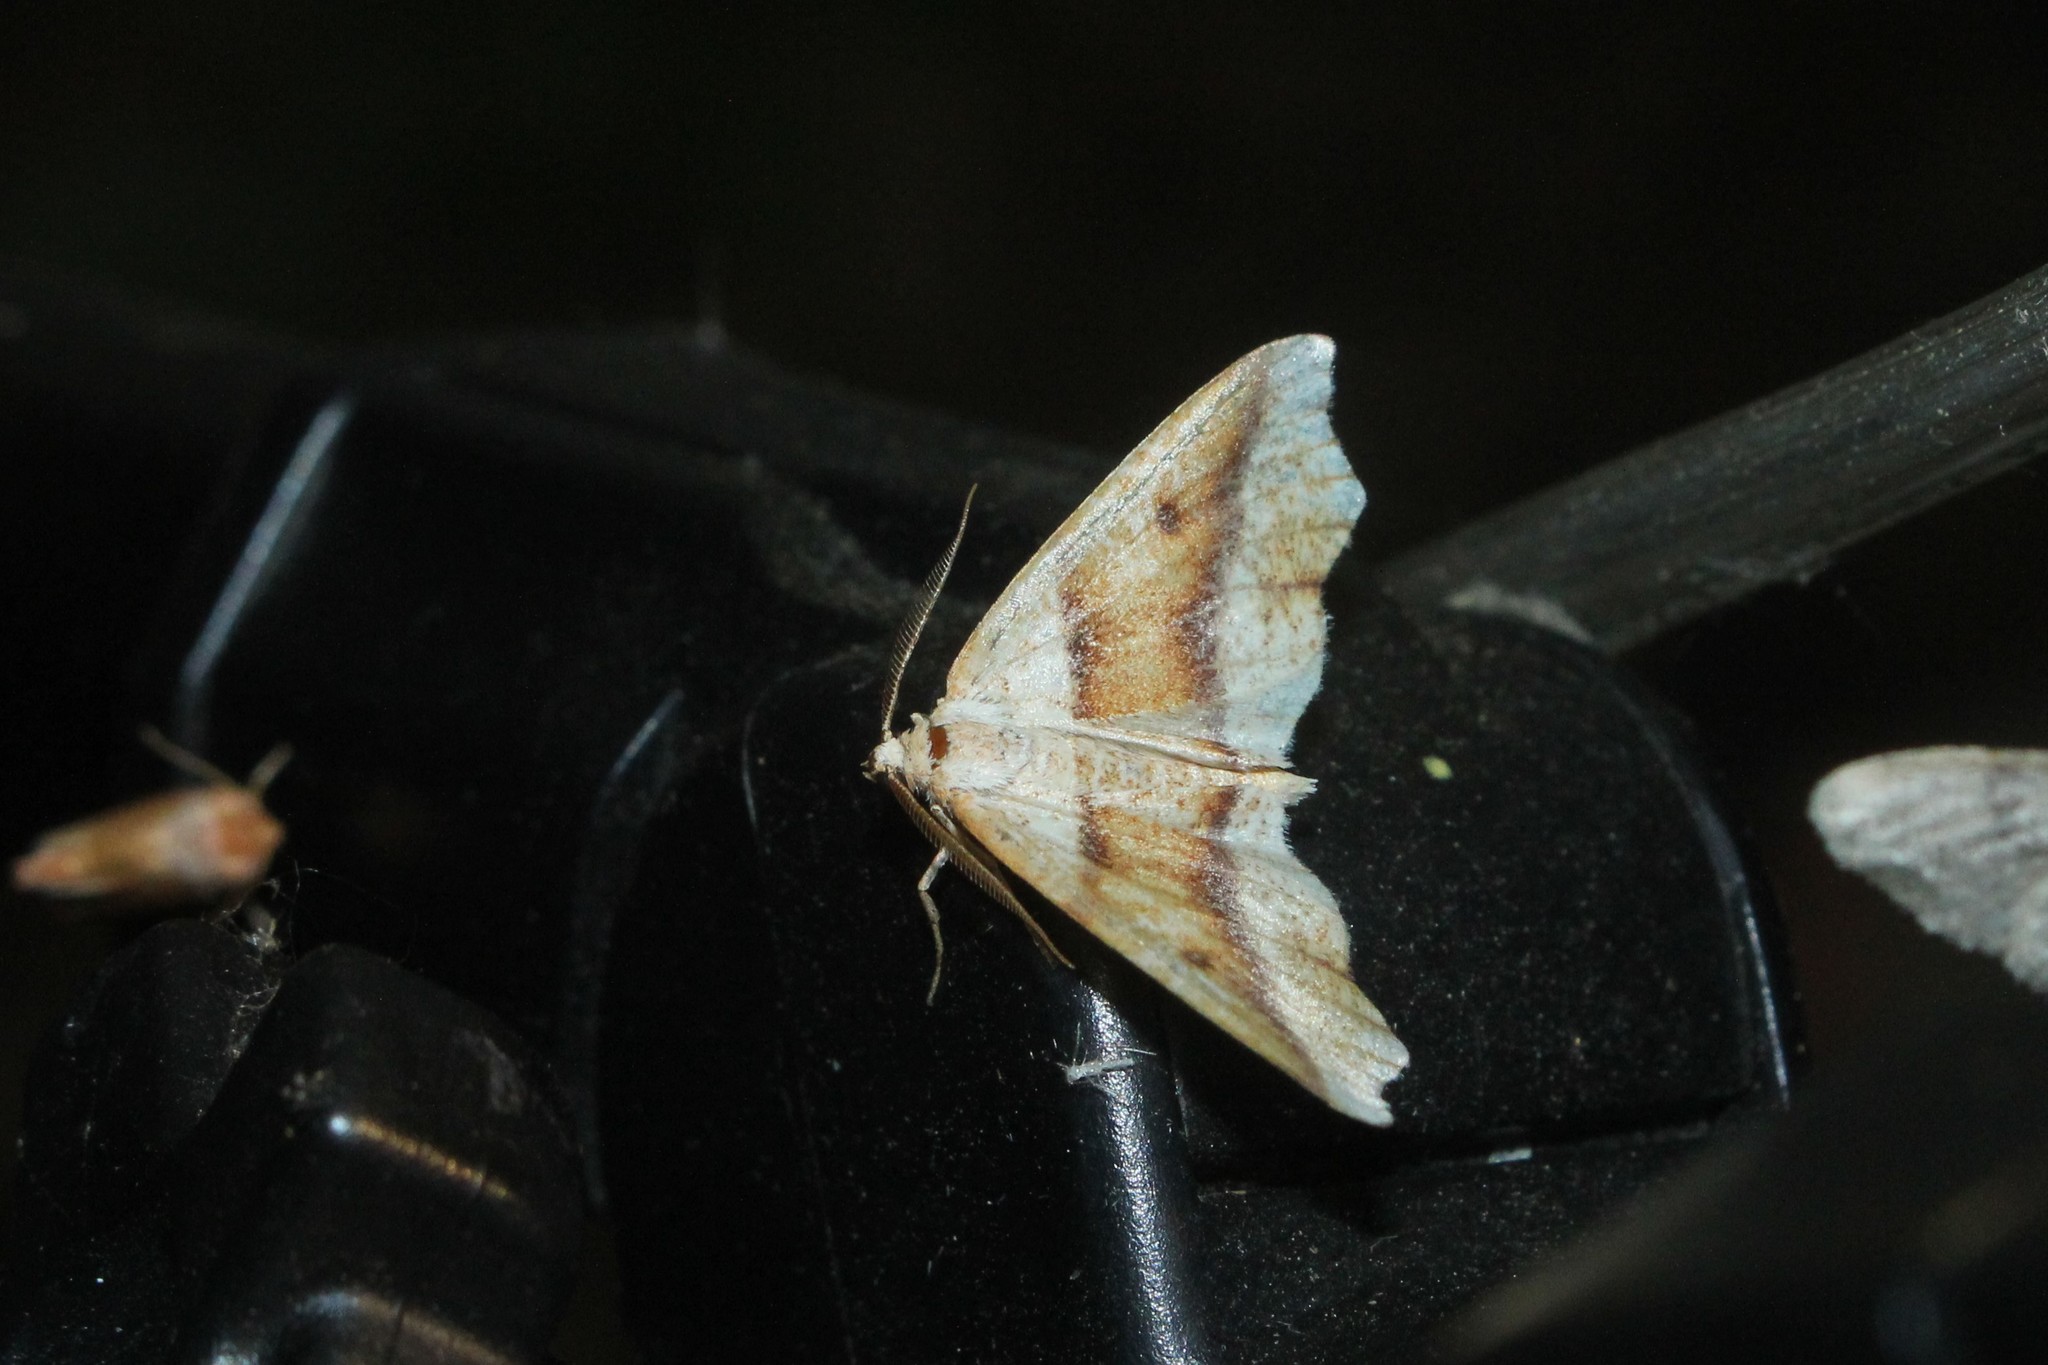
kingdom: Animalia
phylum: Arthropoda
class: Insecta
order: Lepidoptera
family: Geometridae
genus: Plagodis
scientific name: Plagodis alcoolaria
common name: Hollow-spotted plagodis
